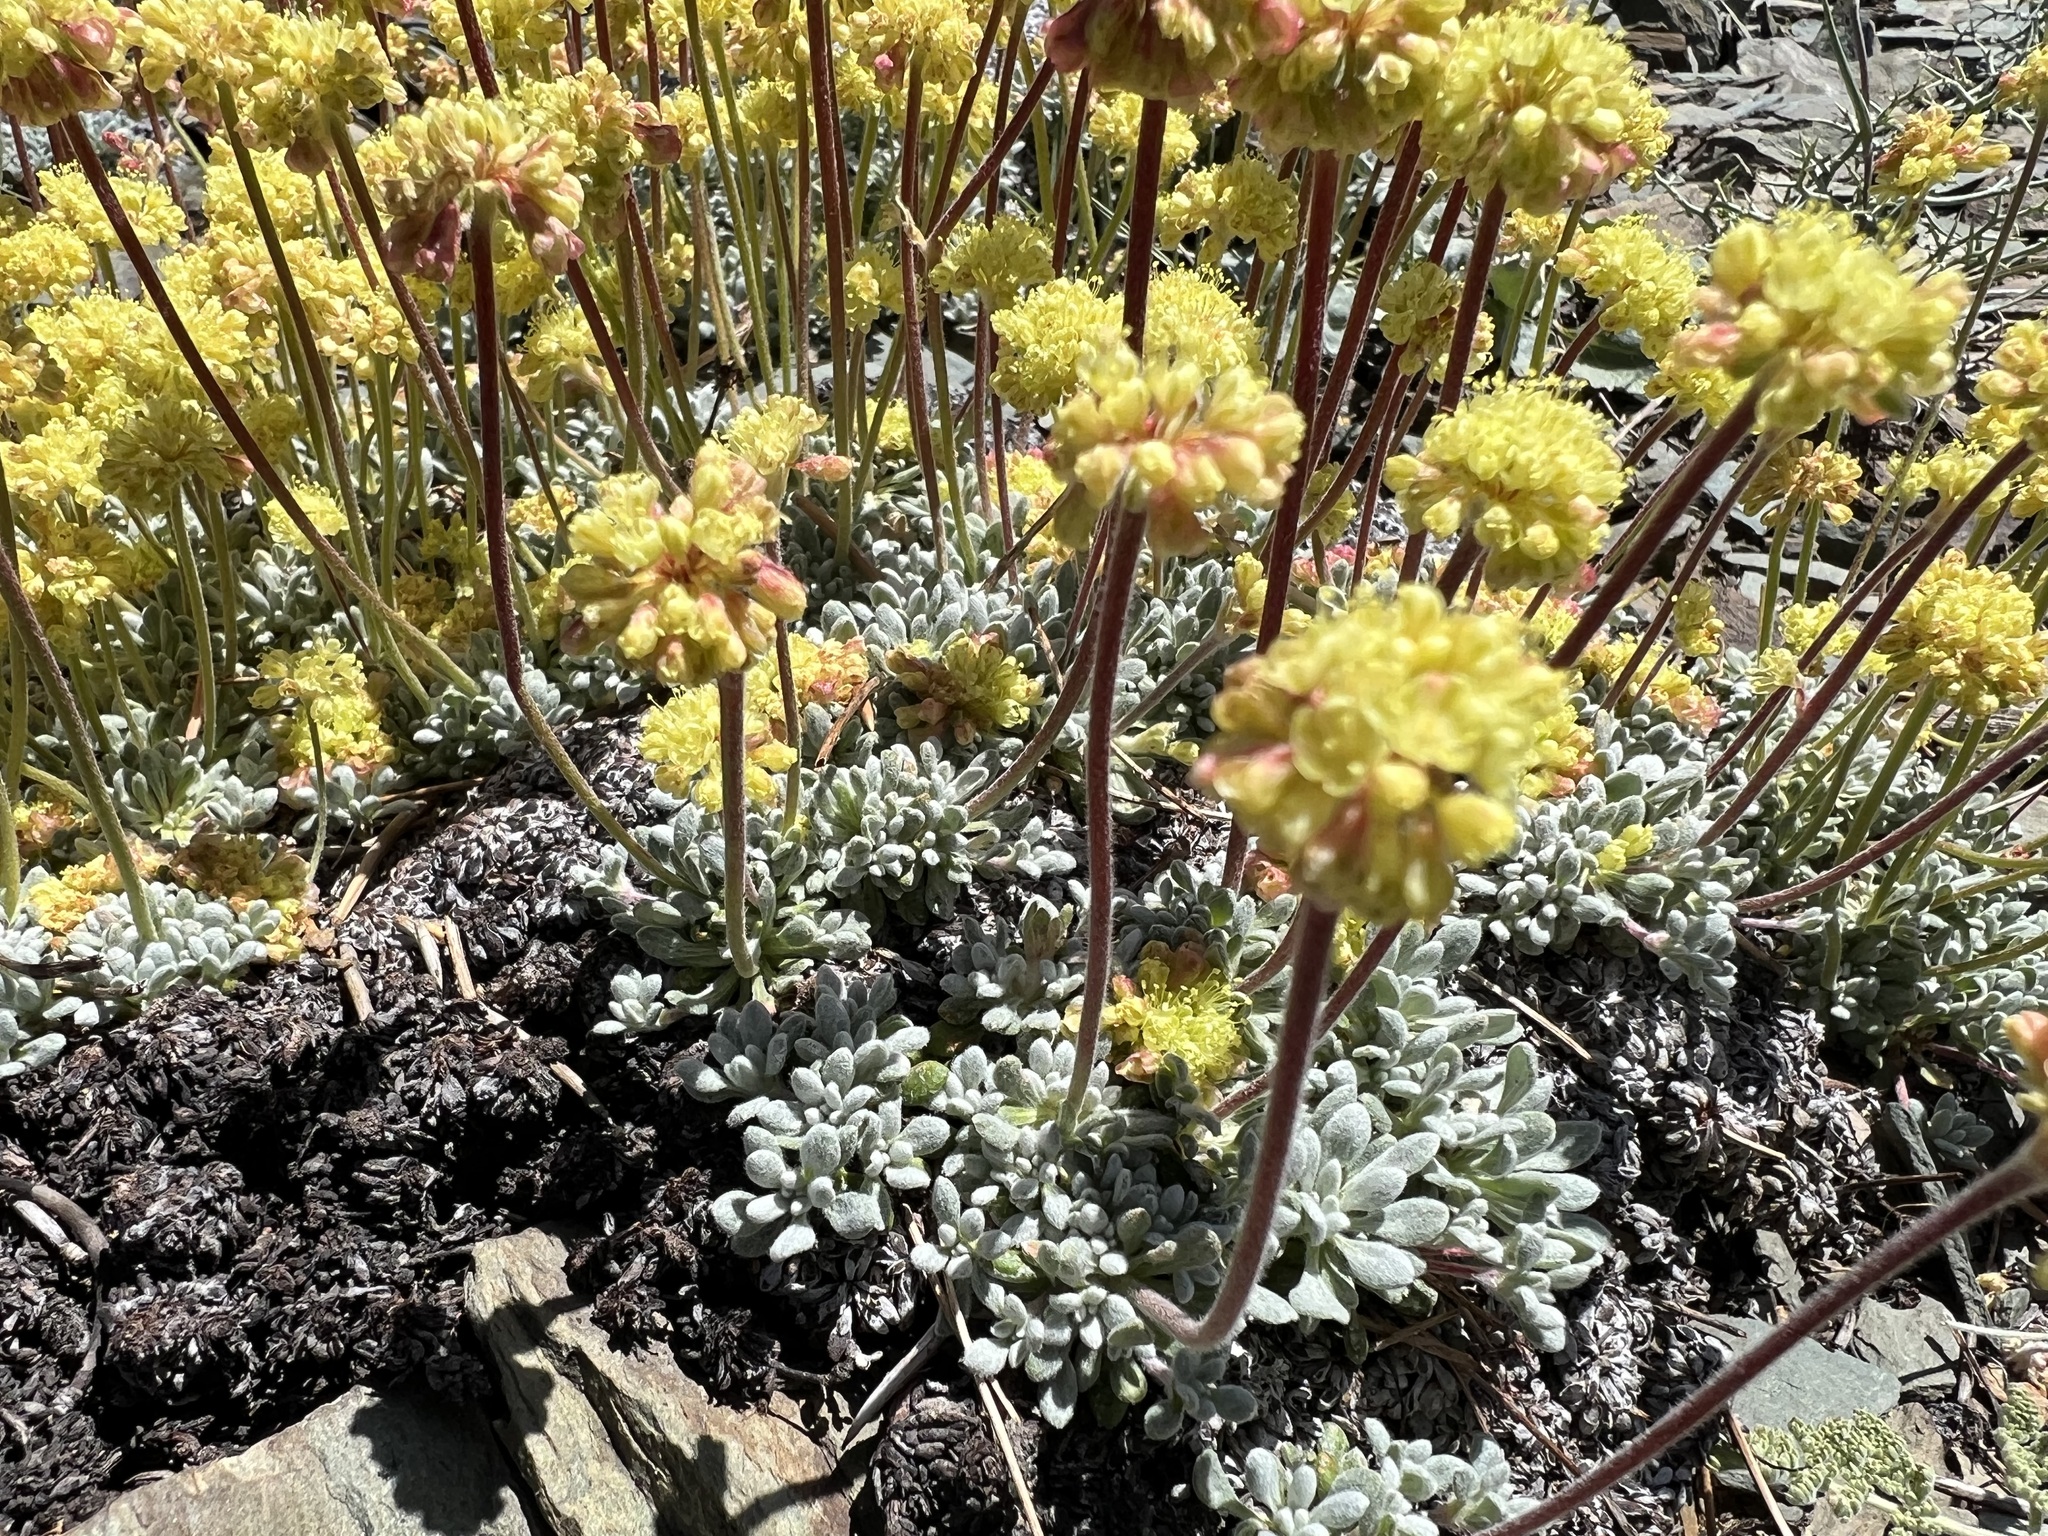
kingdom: Plantae
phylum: Tracheophyta
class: Magnoliopsida
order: Caryophyllales
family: Polygonaceae
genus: Eriogonum
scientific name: Eriogonum caespitosum
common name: Matted wild buckwheat
